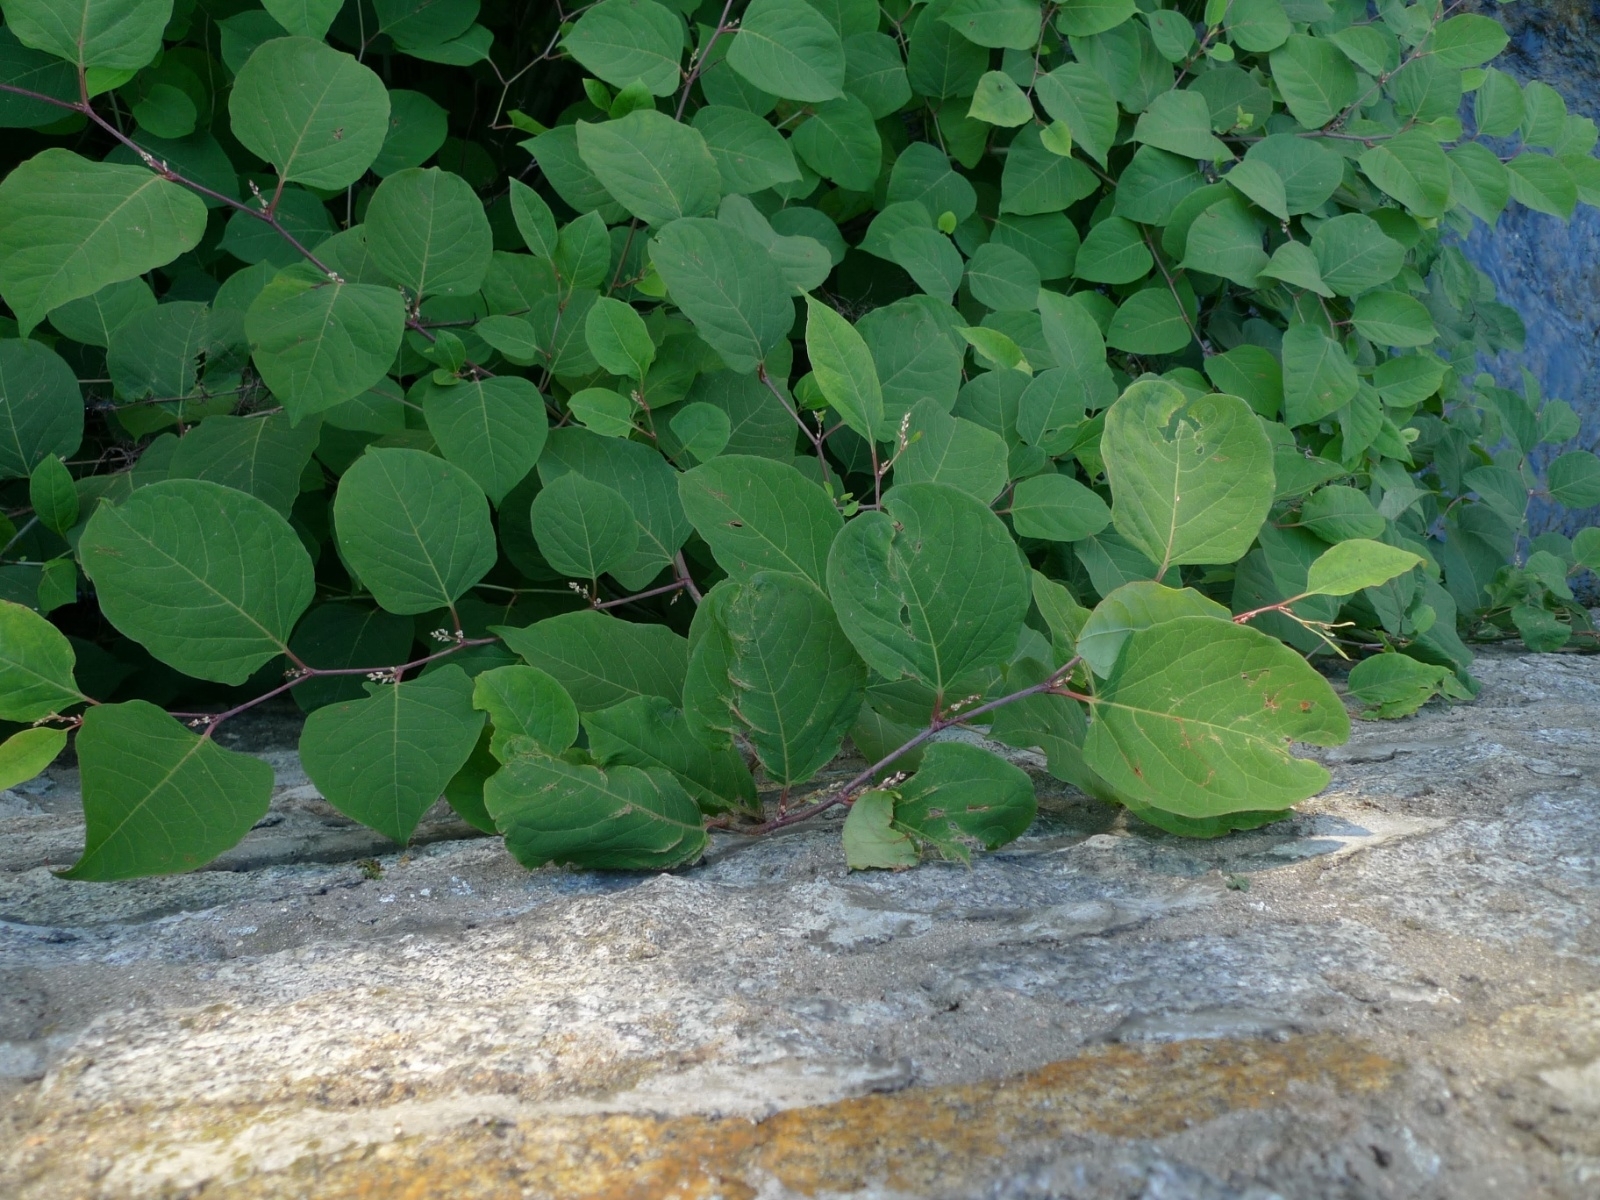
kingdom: Plantae
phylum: Tracheophyta
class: Magnoliopsida
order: Caryophyllales
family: Polygonaceae
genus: Reynoutria
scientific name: Reynoutria japonica
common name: Japanese knotweed
